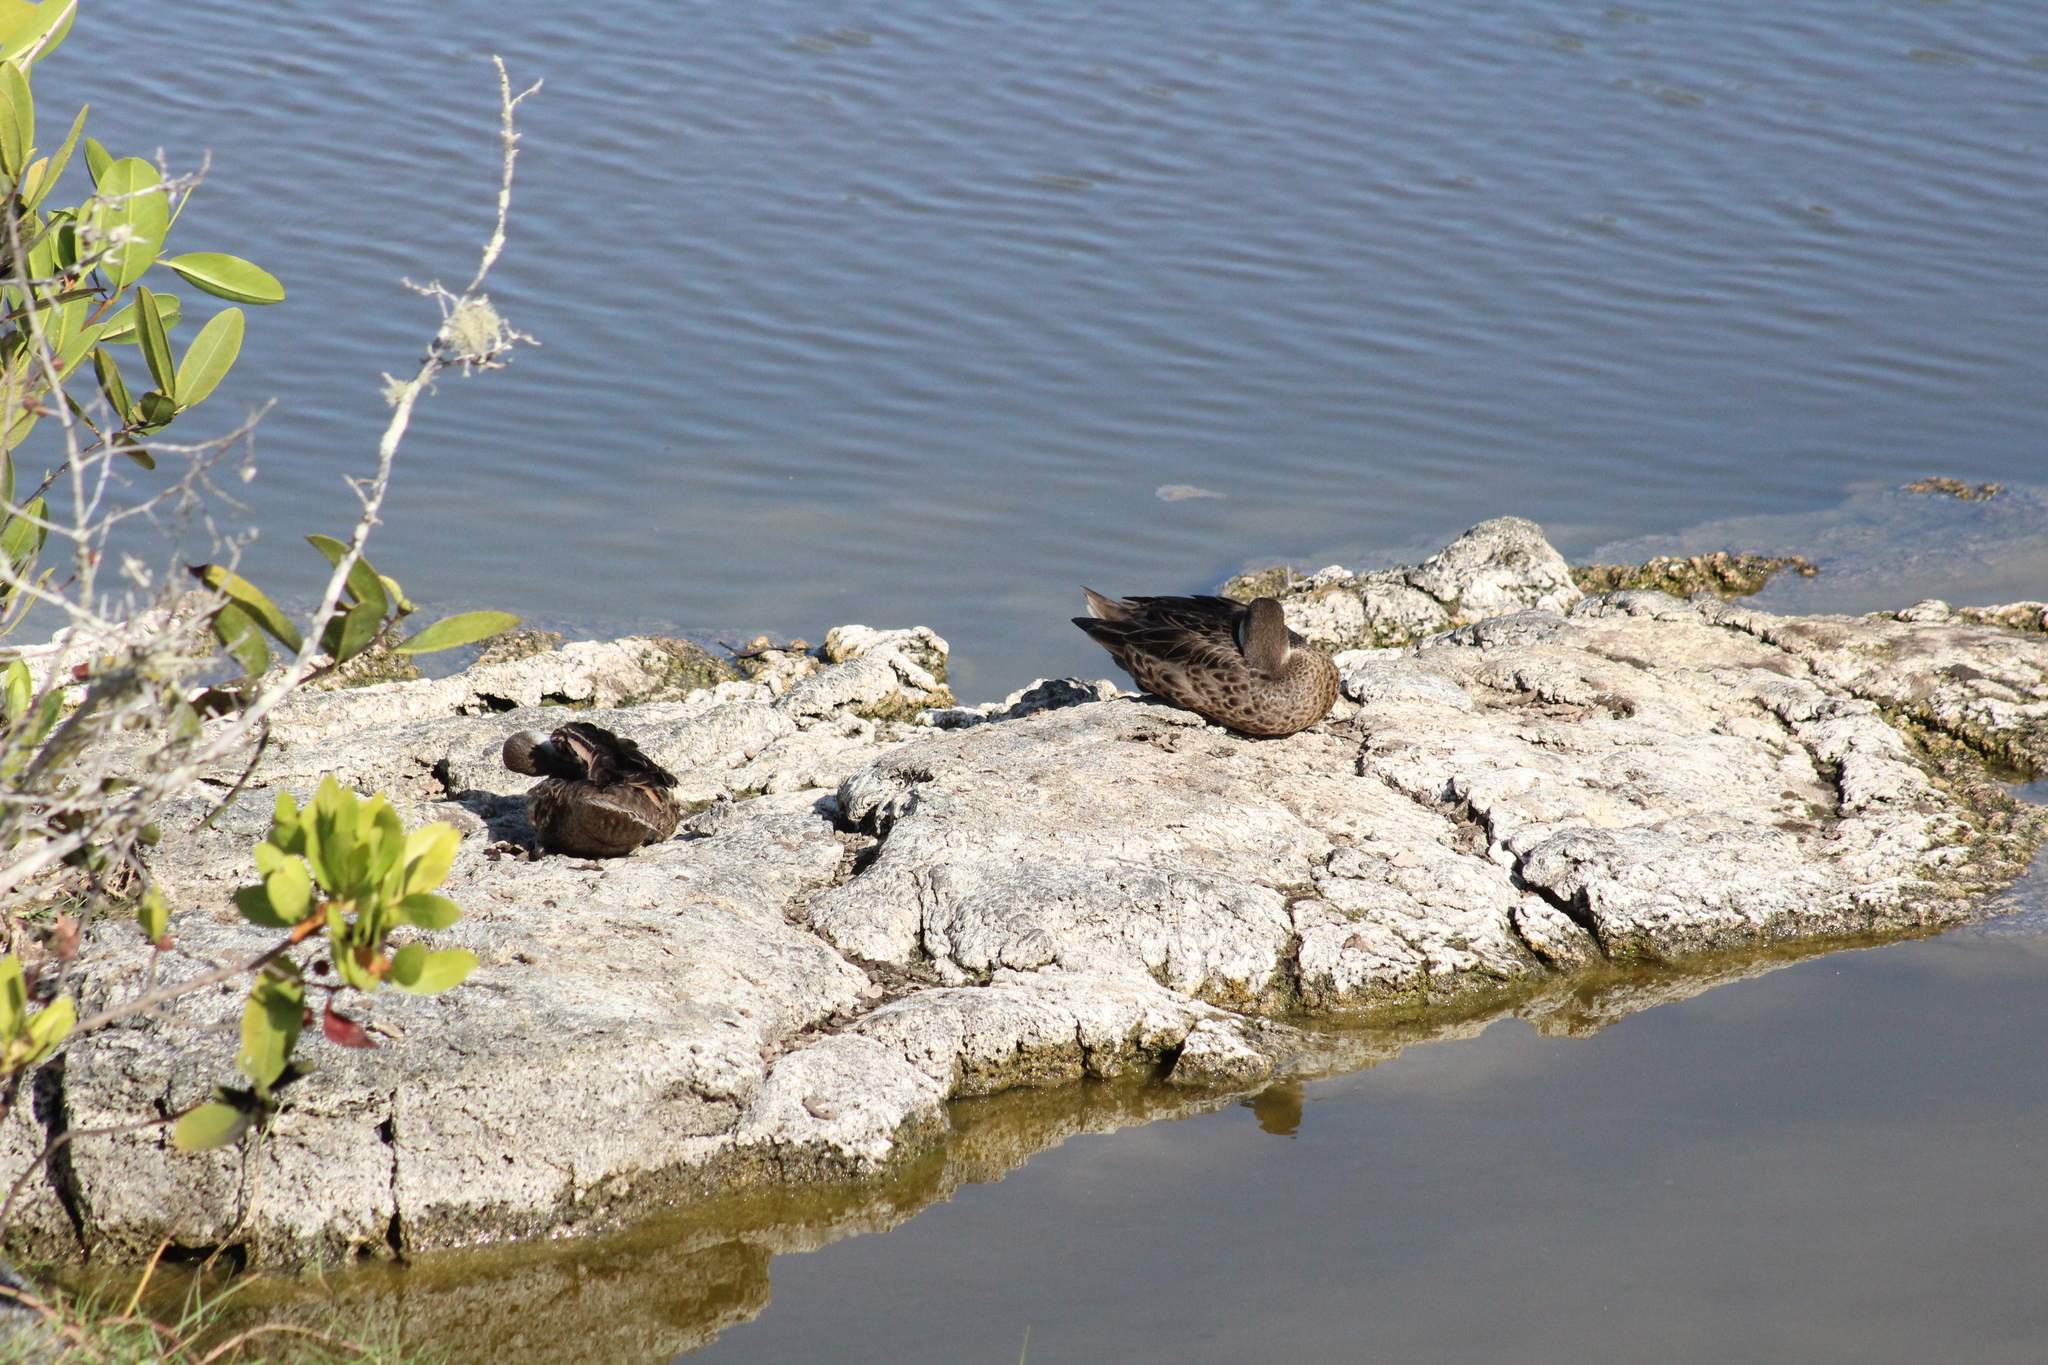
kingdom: Animalia
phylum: Chordata
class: Aves
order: Anseriformes
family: Anatidae
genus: Anas
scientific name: Anas bahamensis
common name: White-cheeked pintail
